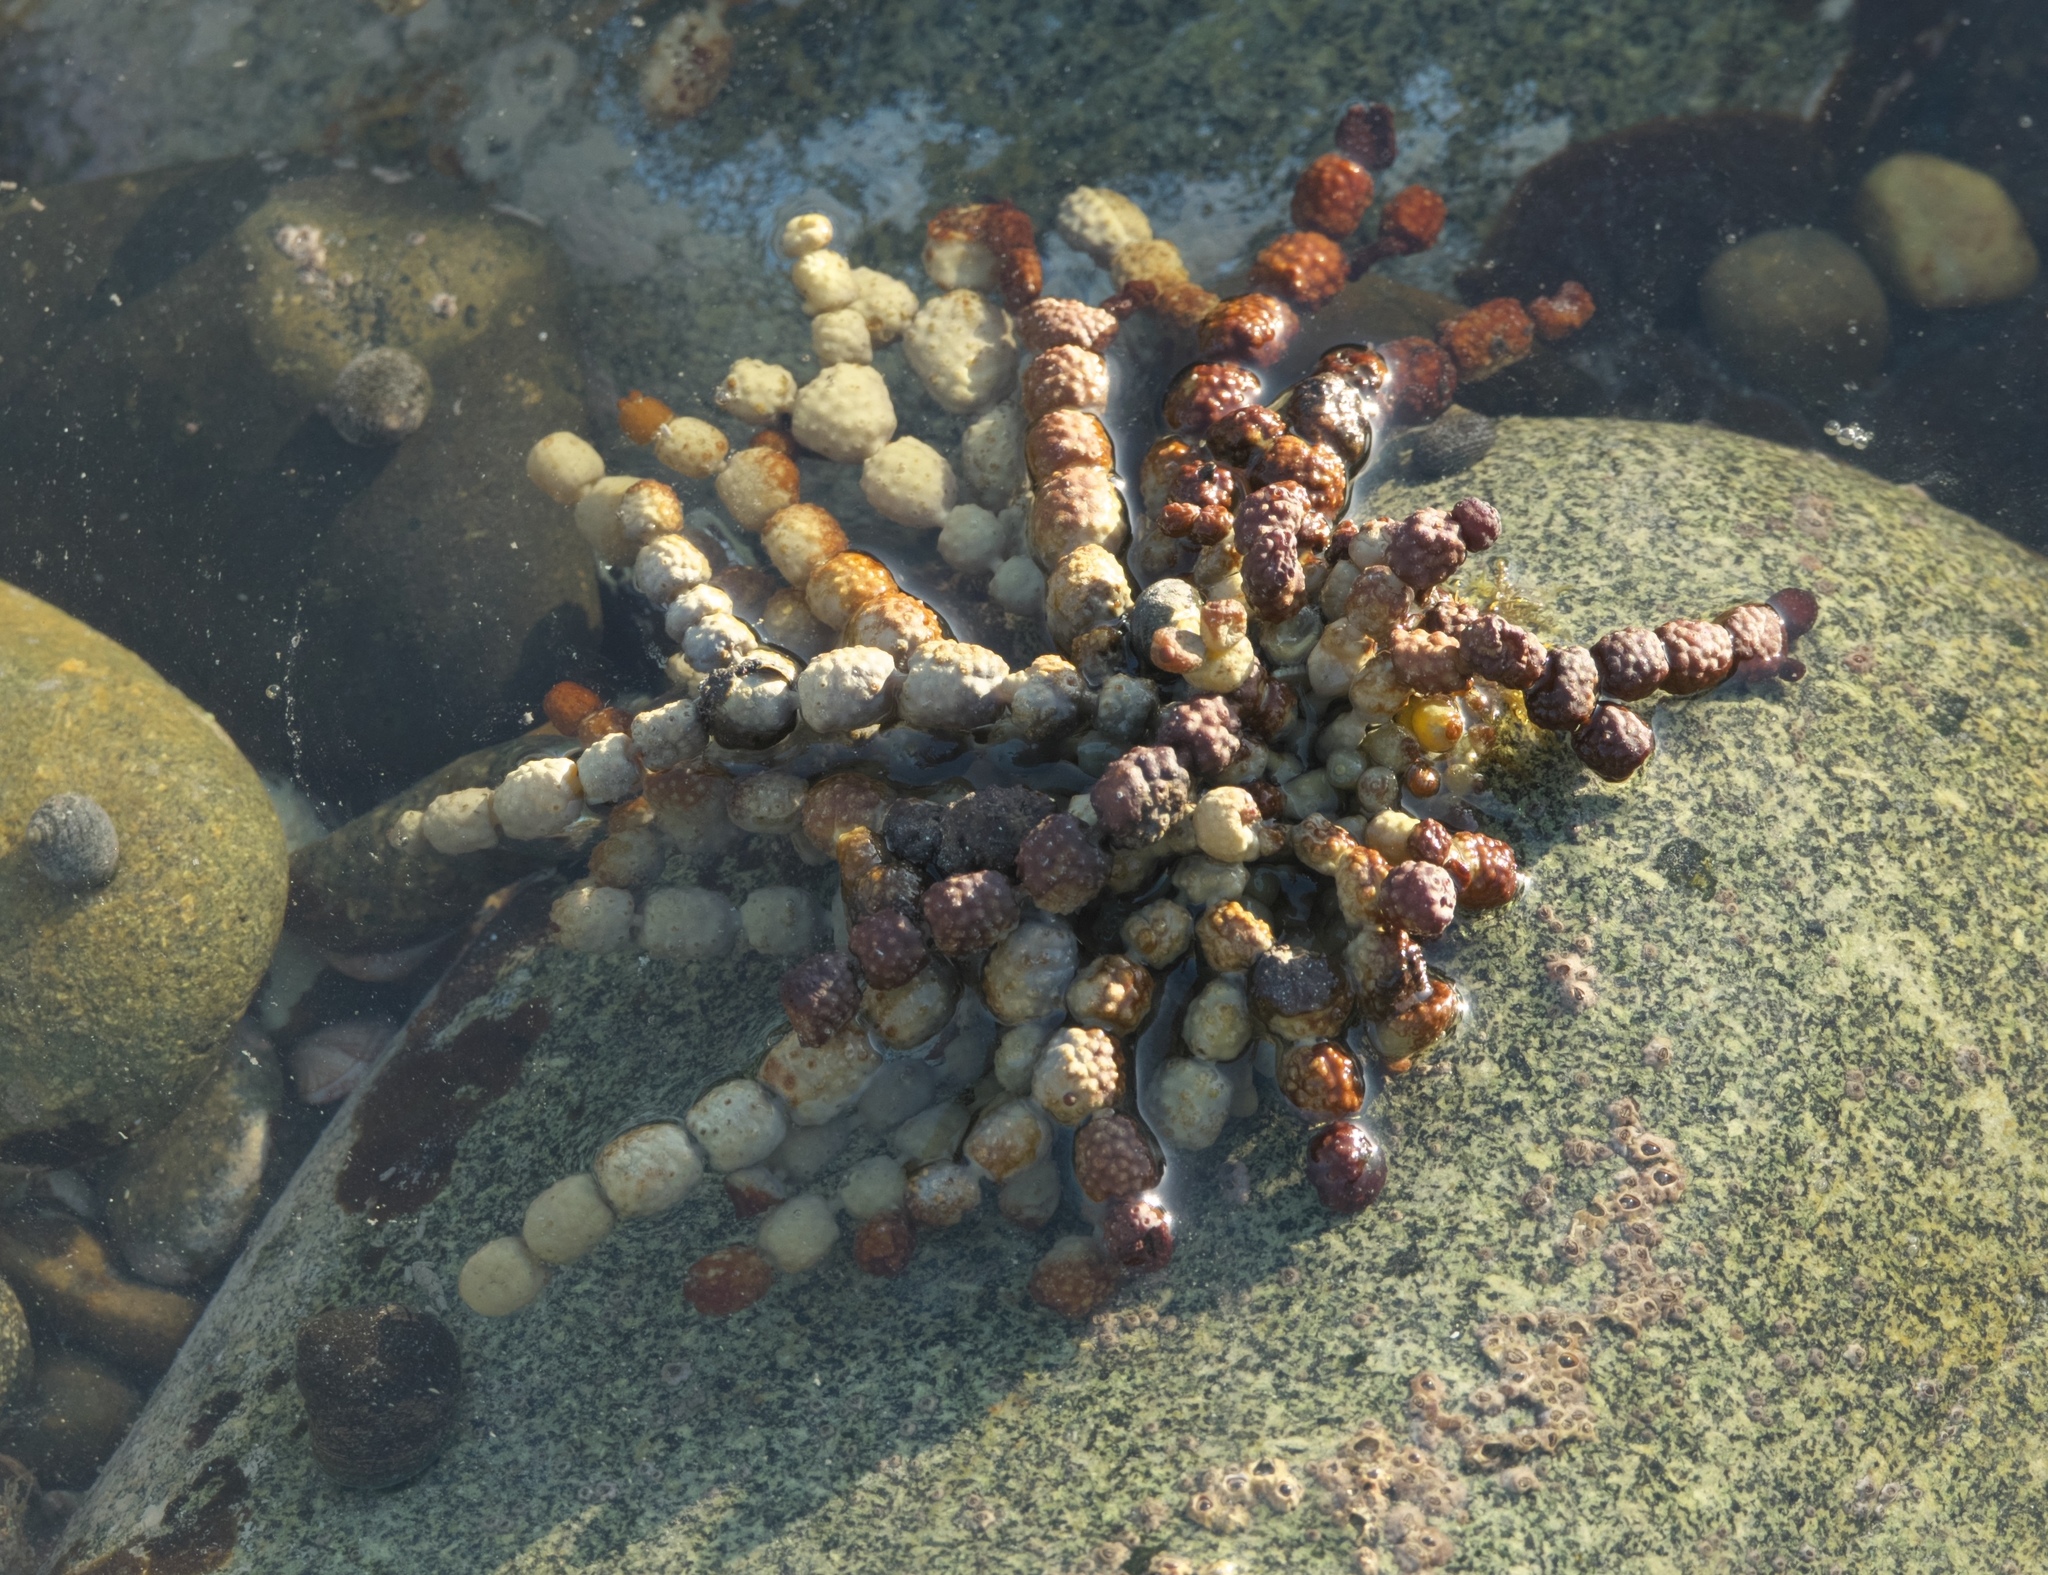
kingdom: Chromista
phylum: Ochrophyta
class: Phaeophyceae
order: Fucales
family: Hormosiraceae
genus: Hormosira
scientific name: Hormosira banksii
